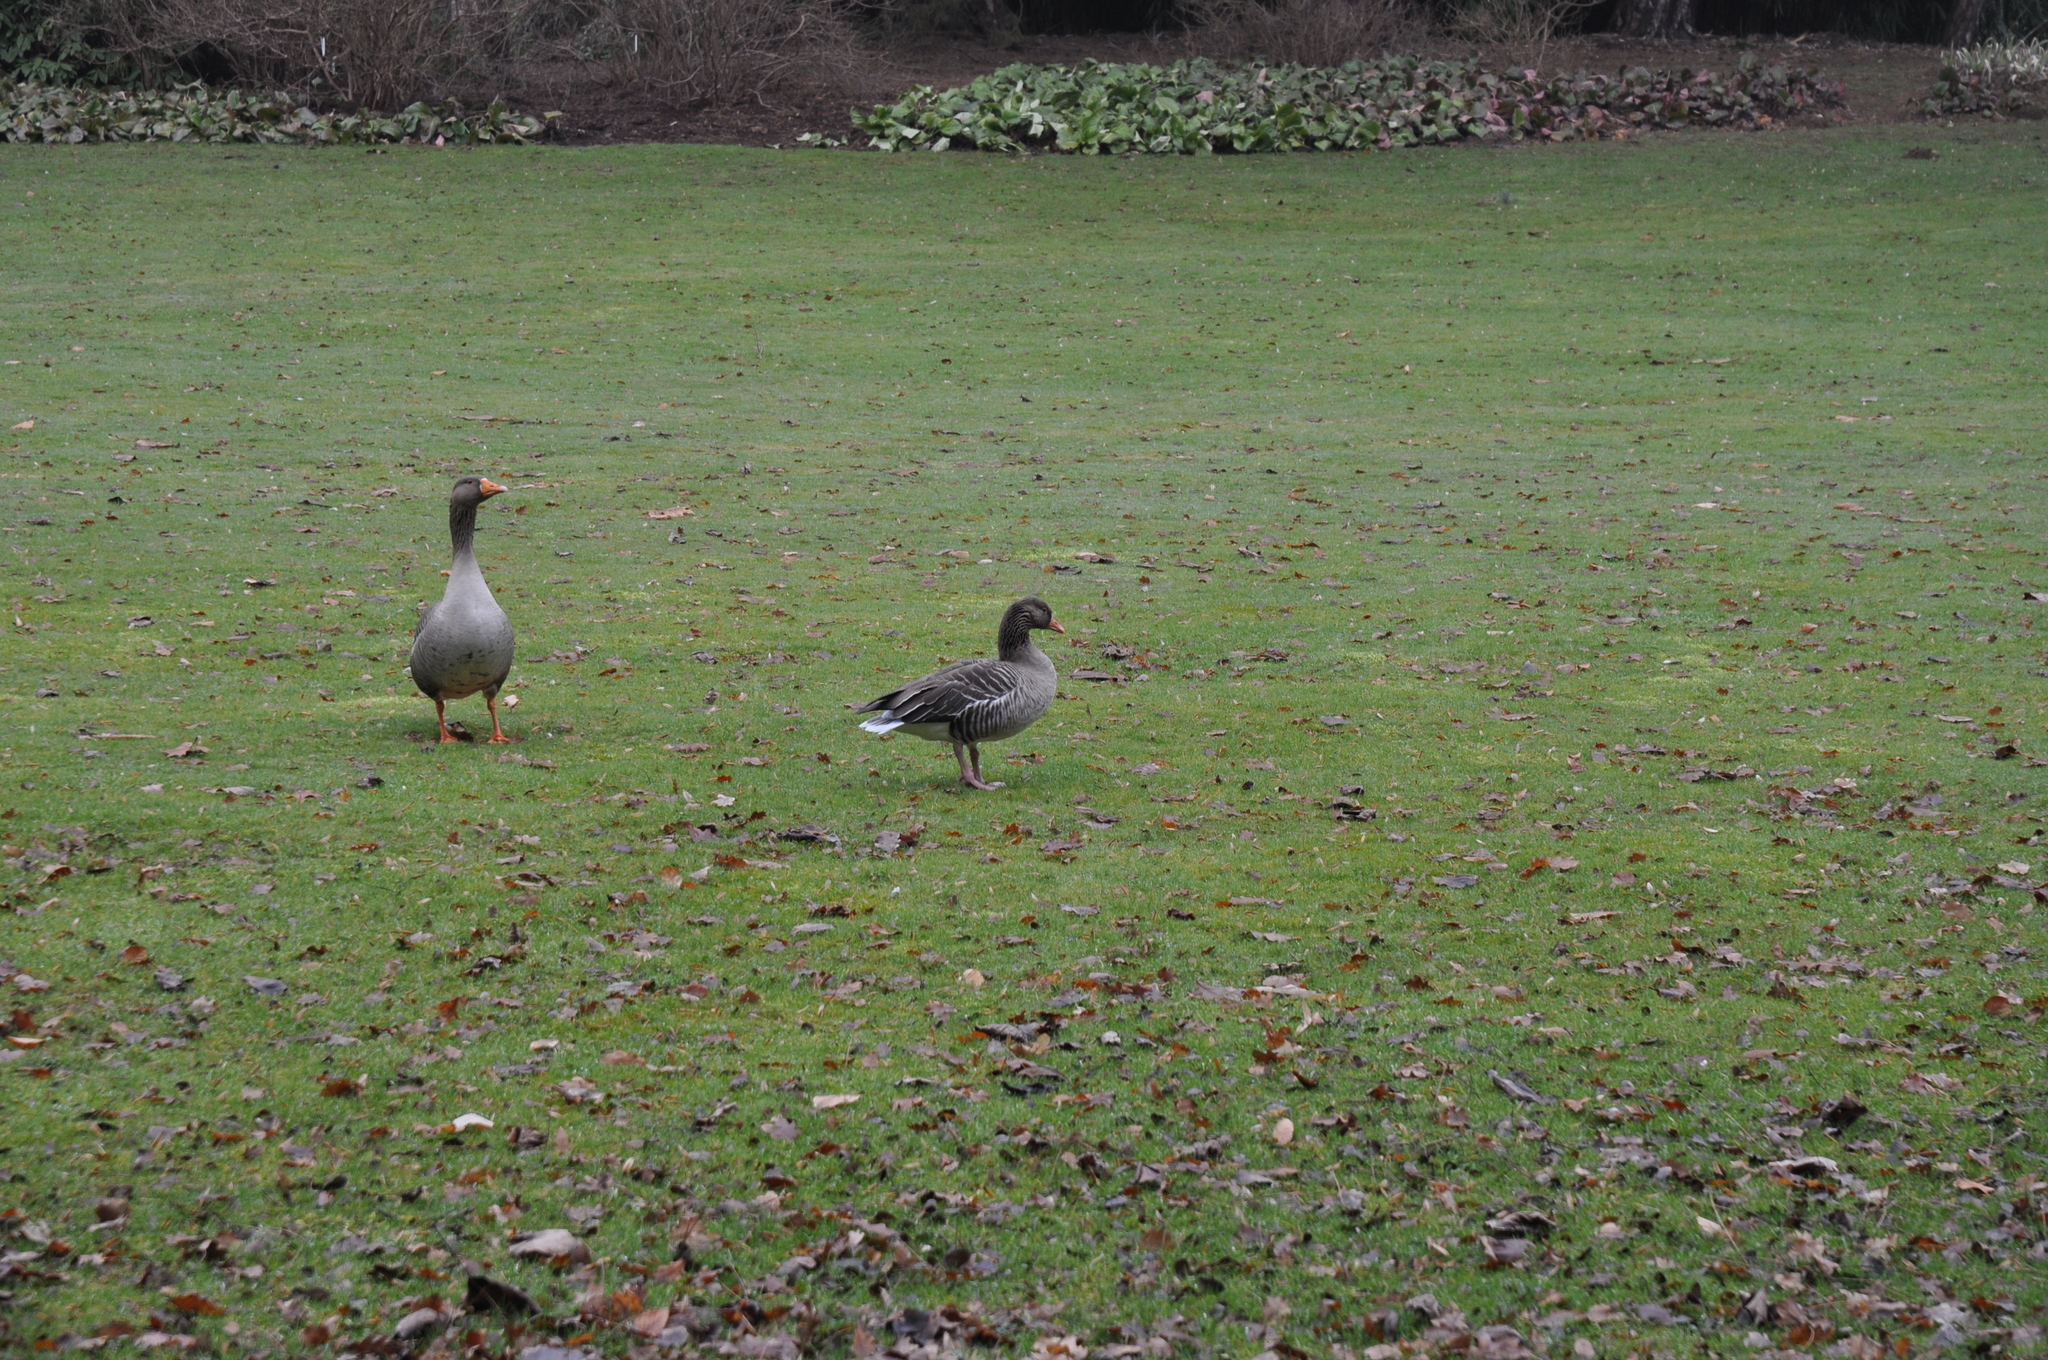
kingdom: Animalia
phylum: Chordata
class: Aves
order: Anseriformes
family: Anatidae
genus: Anser
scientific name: Anser anser
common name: Greylag goose
